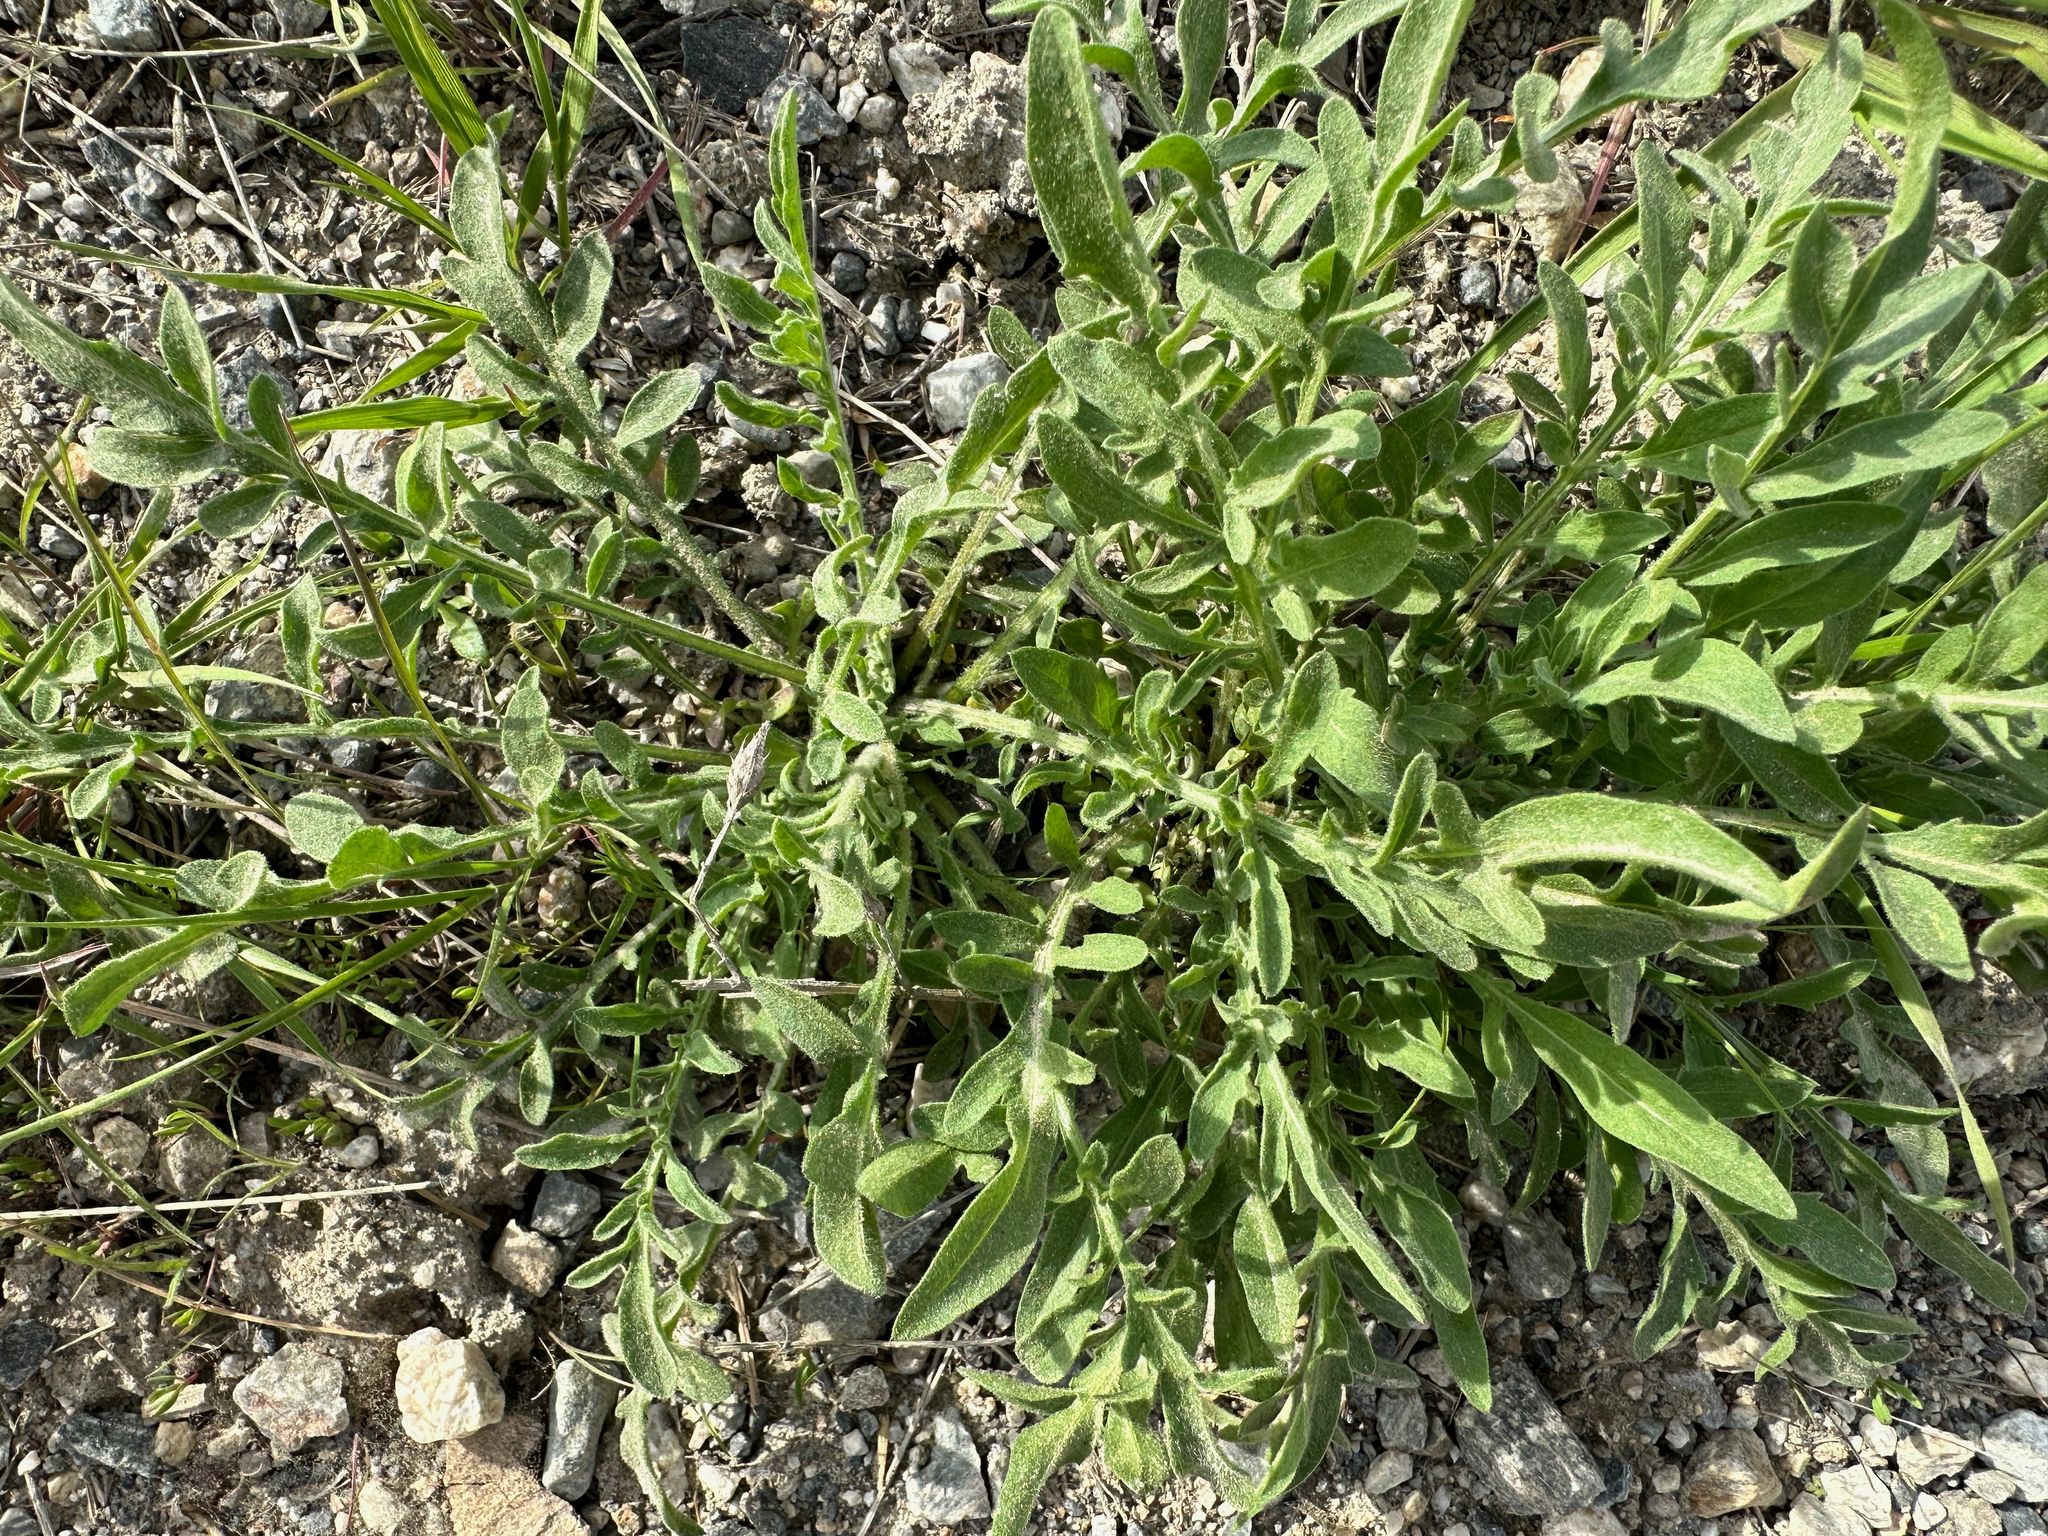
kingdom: Plantae
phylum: Tracheophyta
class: Magnoliopsida
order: Asterales
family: Asteraceae
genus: Centaurea
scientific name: Centaurea diffusa
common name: Diffuse knapweed
